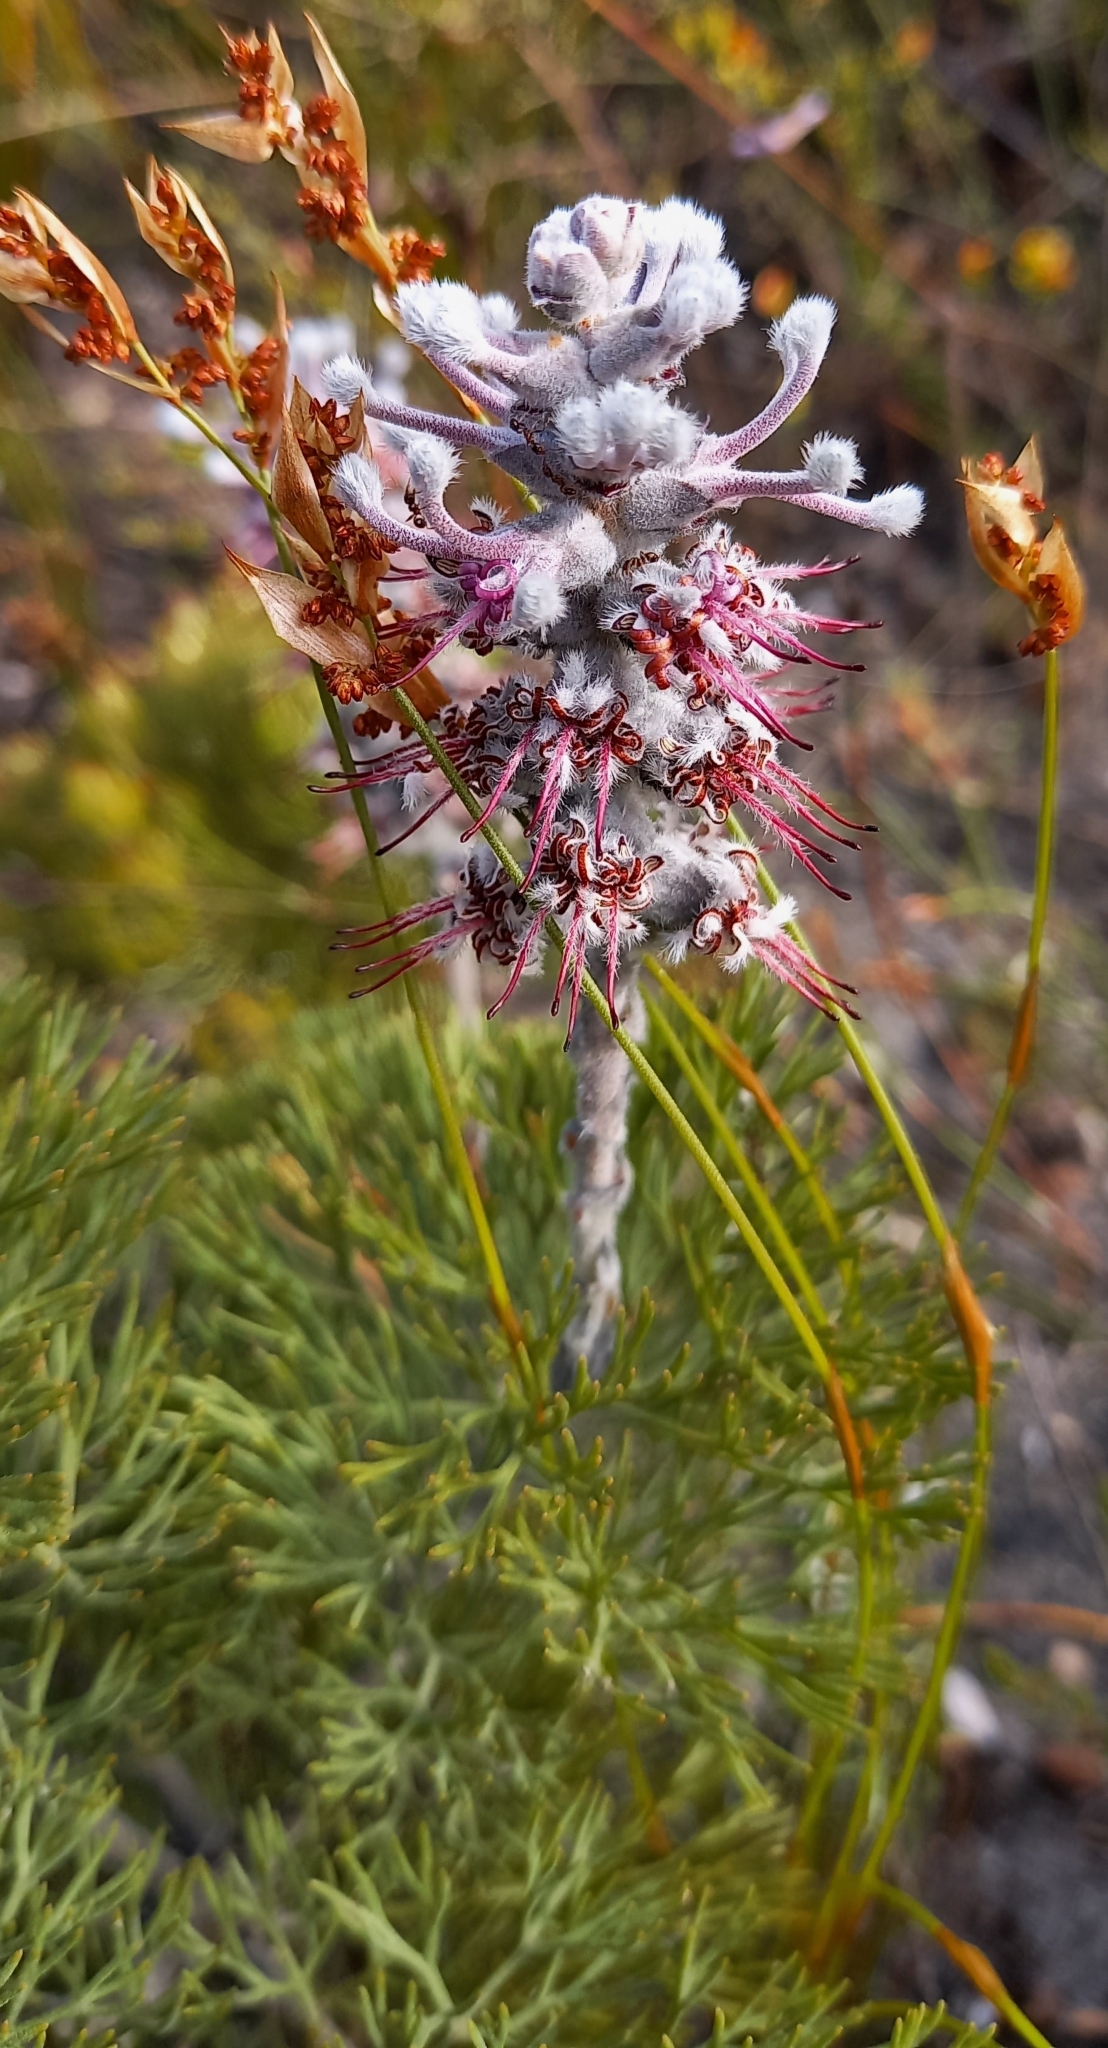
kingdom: Plantae
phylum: Tracheophyta
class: Magnoliopsida
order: Proteales
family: Proteaceae
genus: Paranomus
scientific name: Paranomus bolusii
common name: Overberg sceptre
